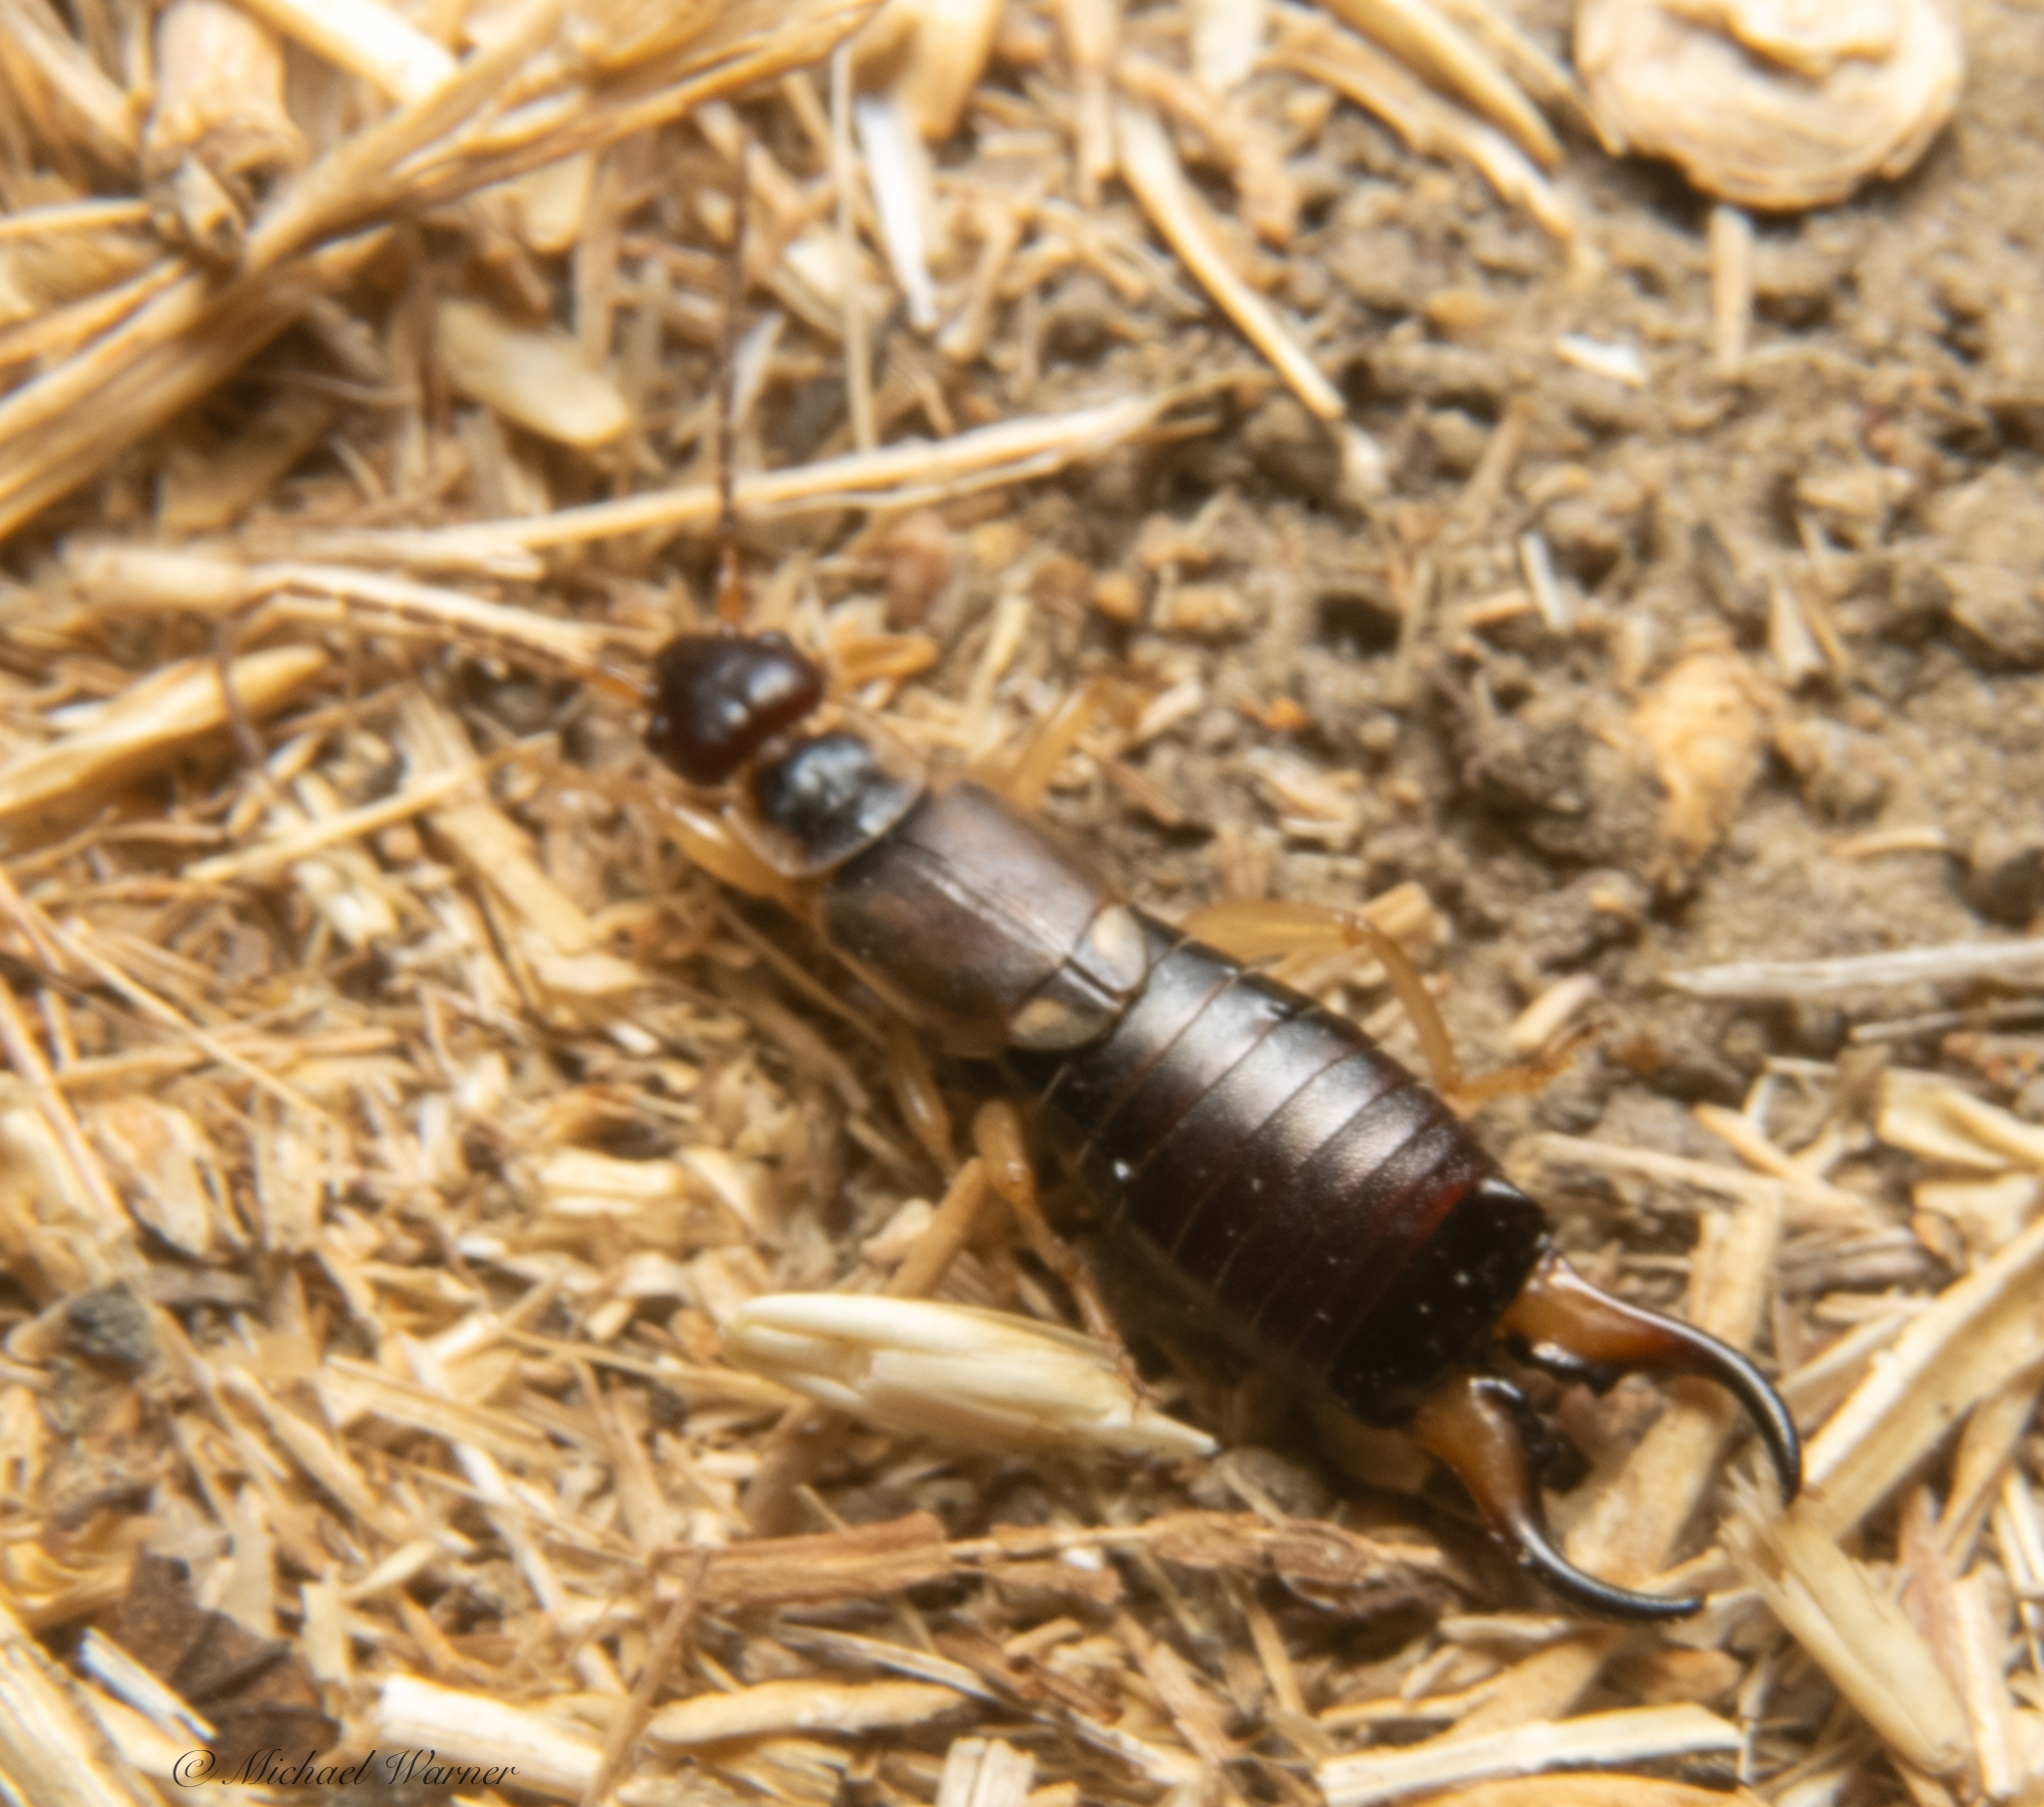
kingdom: Animalia
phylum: Arthropoda
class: Insecta
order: Dermaptera
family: Forficulidae
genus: Forficula
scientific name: Forficula dentata
